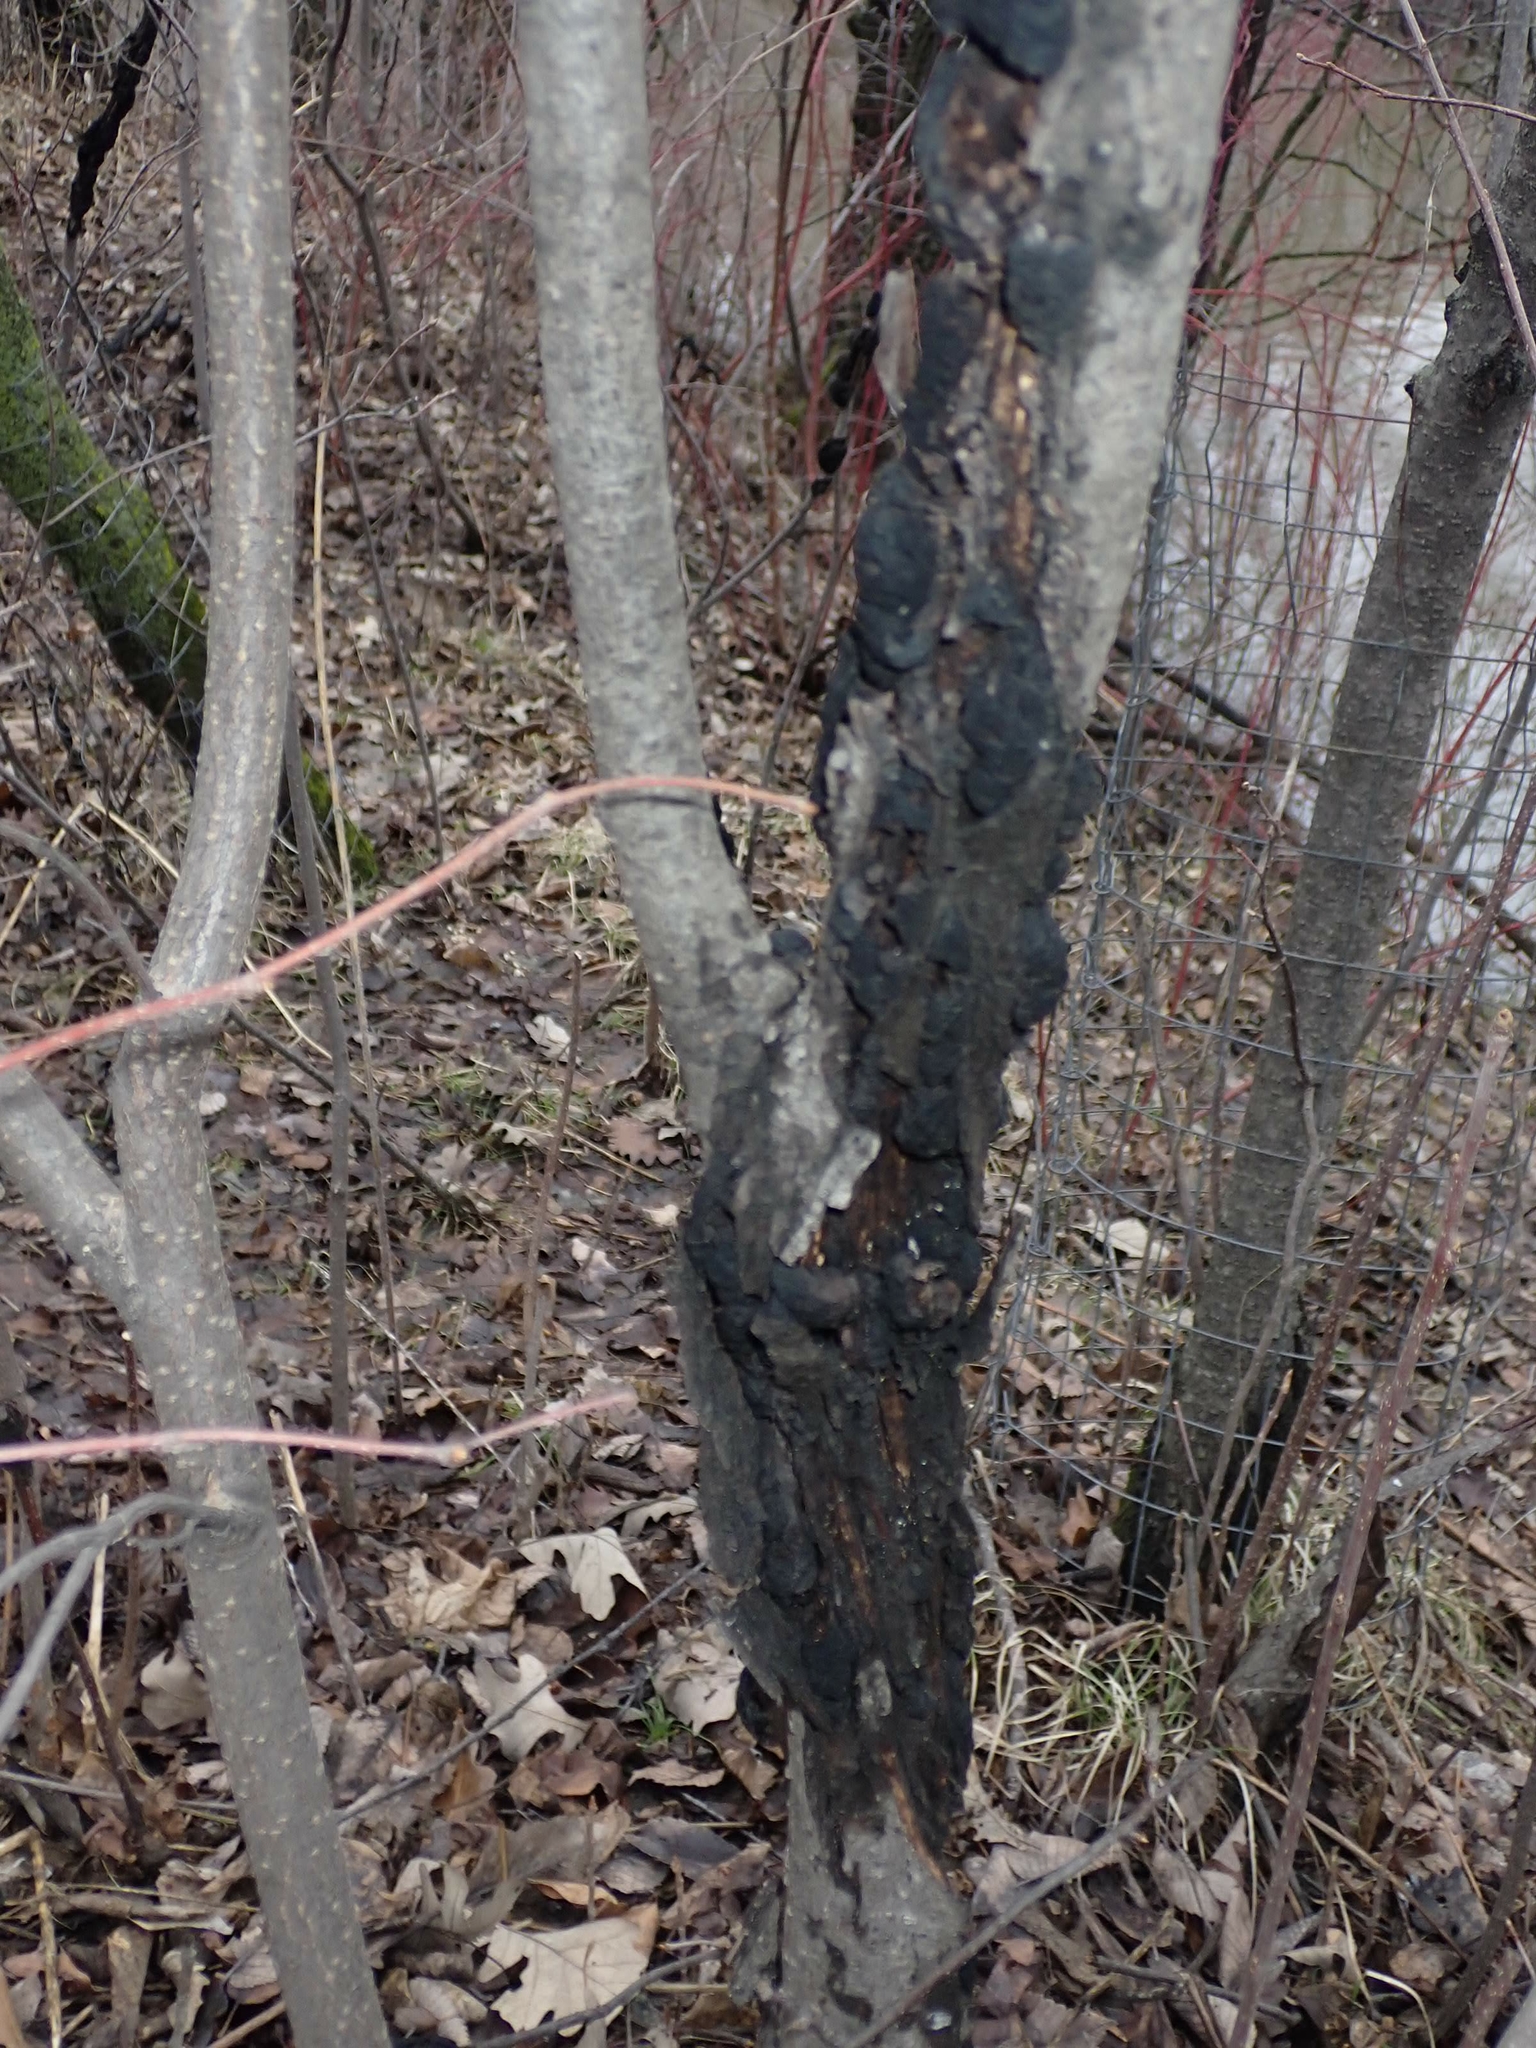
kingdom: Fungi
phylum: Ascomycota
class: Dothideomycetes
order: Venturiales
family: Venturiaceae
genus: Apiosporina
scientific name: Apiosporina morbosa
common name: Black knot
